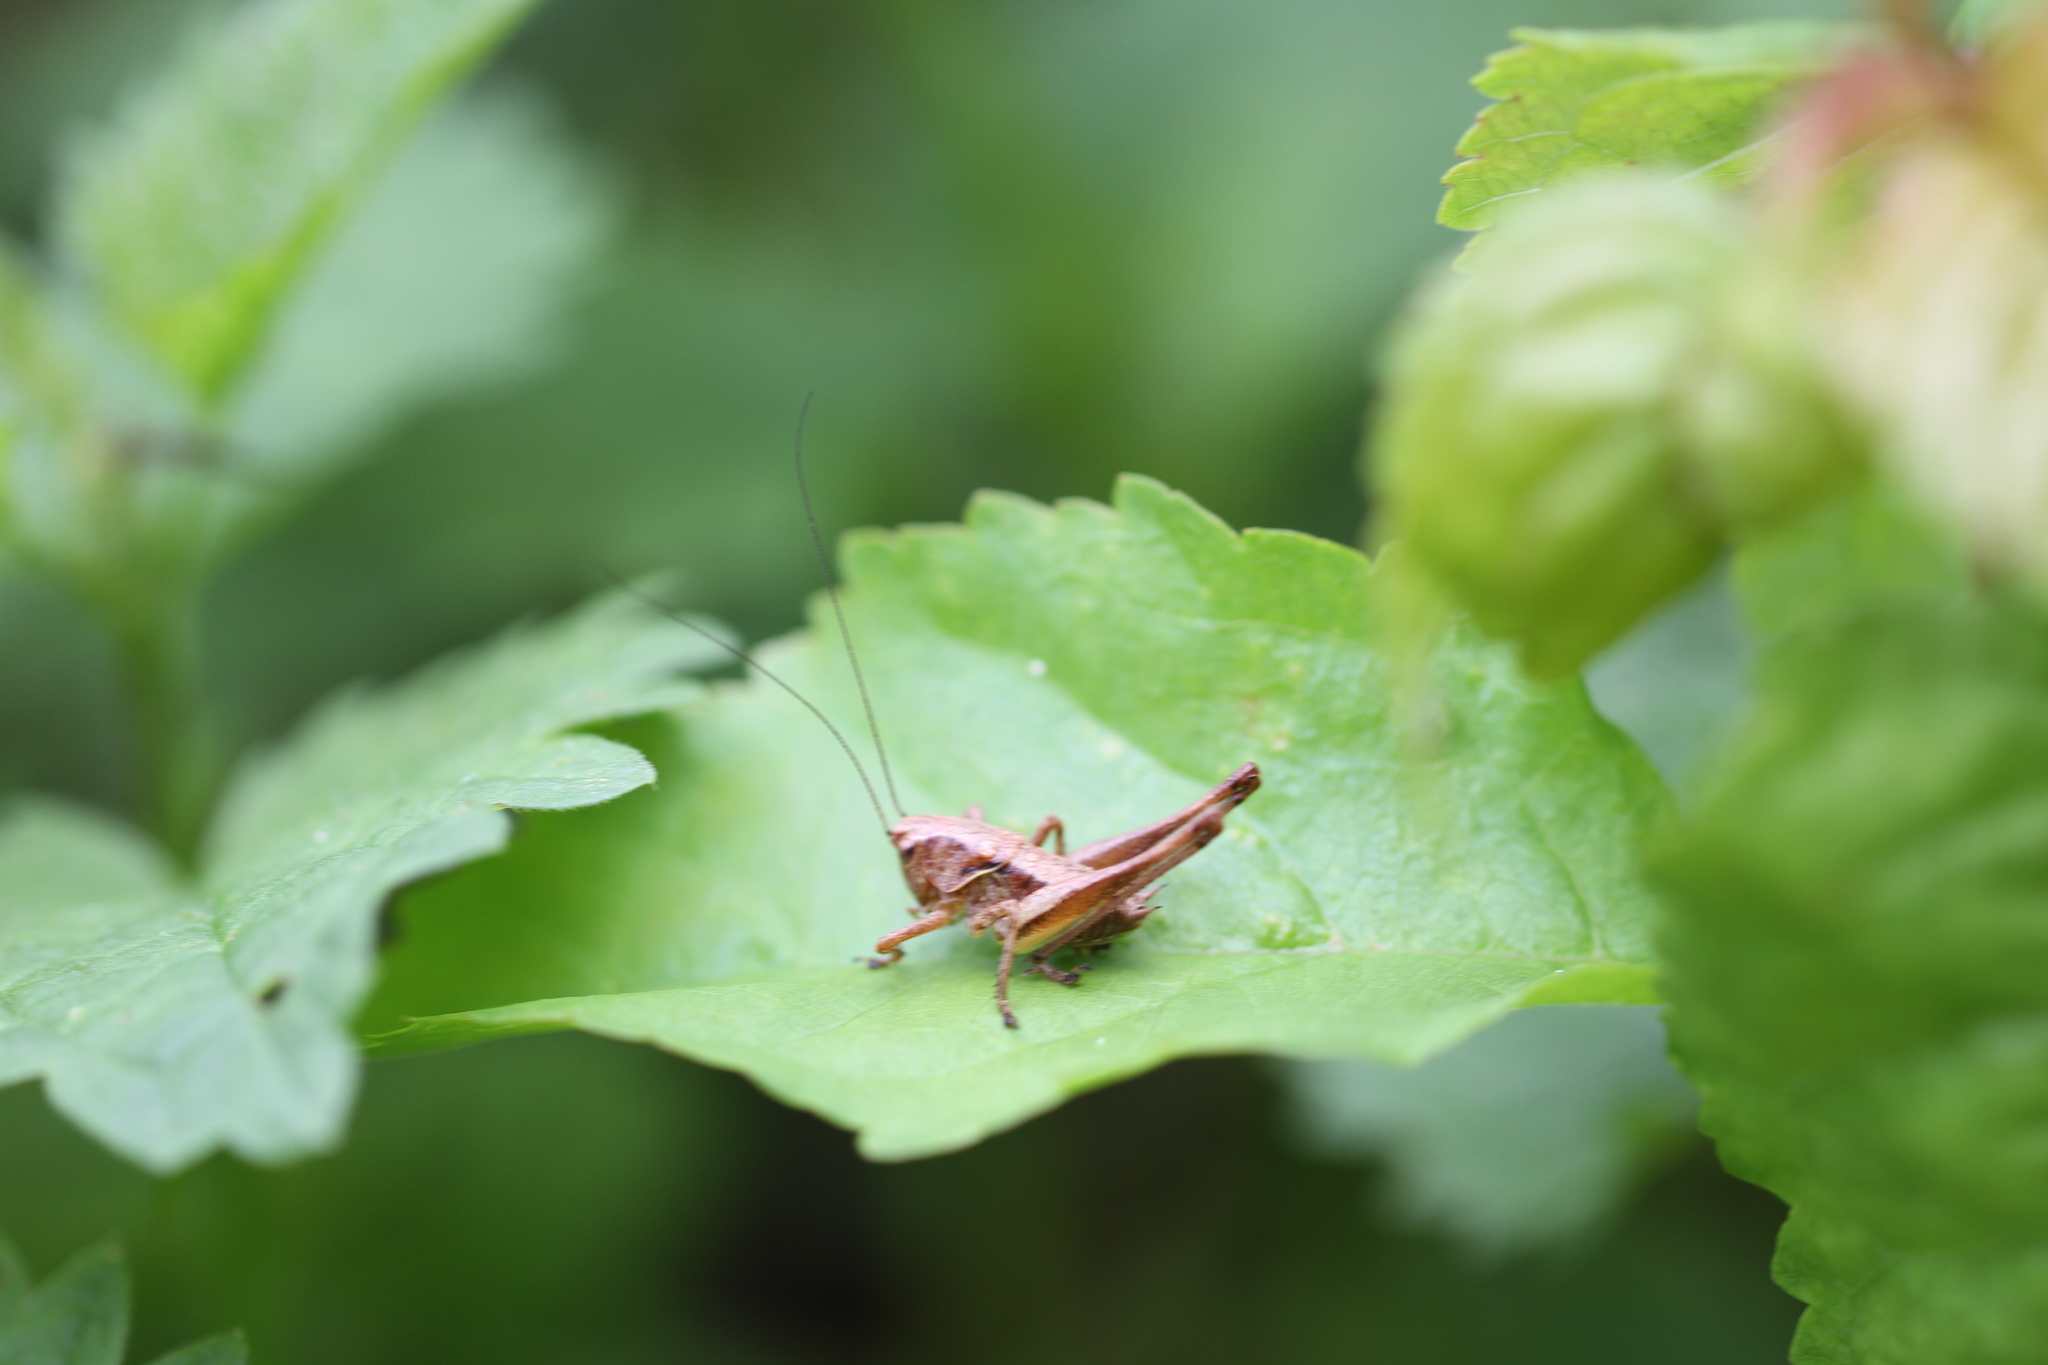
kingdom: Animalia
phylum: Arthropoda
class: Insecta
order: Orthoptera
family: Tettigoniidae
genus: Pholidoptera
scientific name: Pholidoptera griseoaptera
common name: Dark bush-cricket
